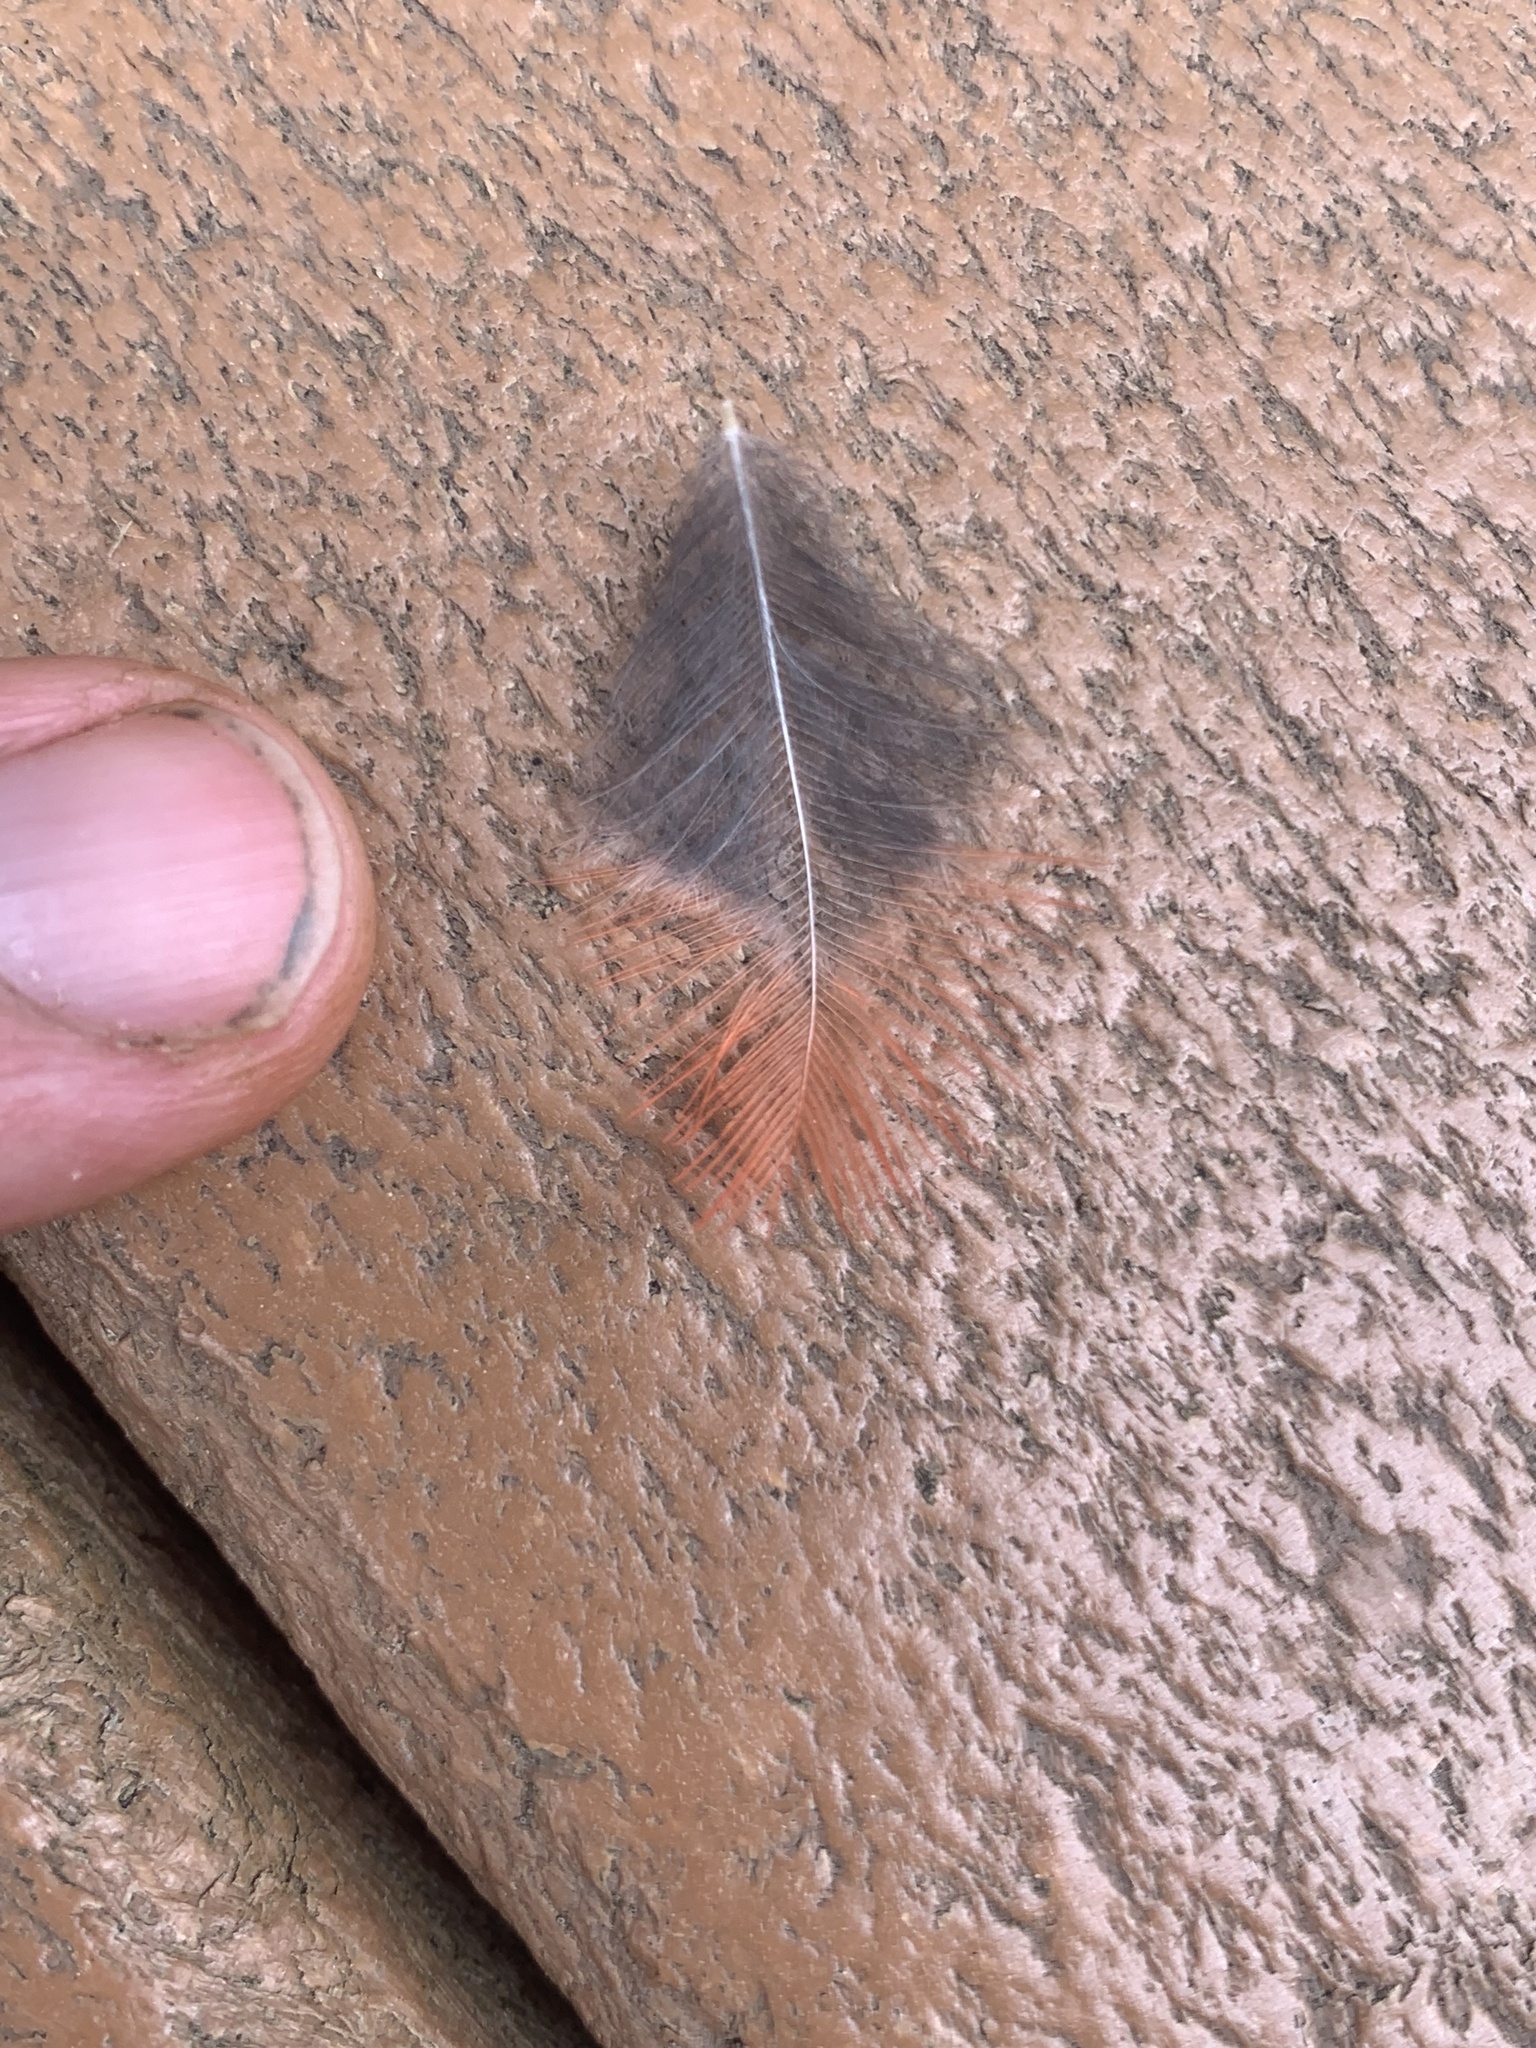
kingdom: Animalia
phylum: Chordata
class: Aves
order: Passeriformes
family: Cardinalidae
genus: Cardinalis
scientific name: Cardinalis cardinalis
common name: Northern cardinal
